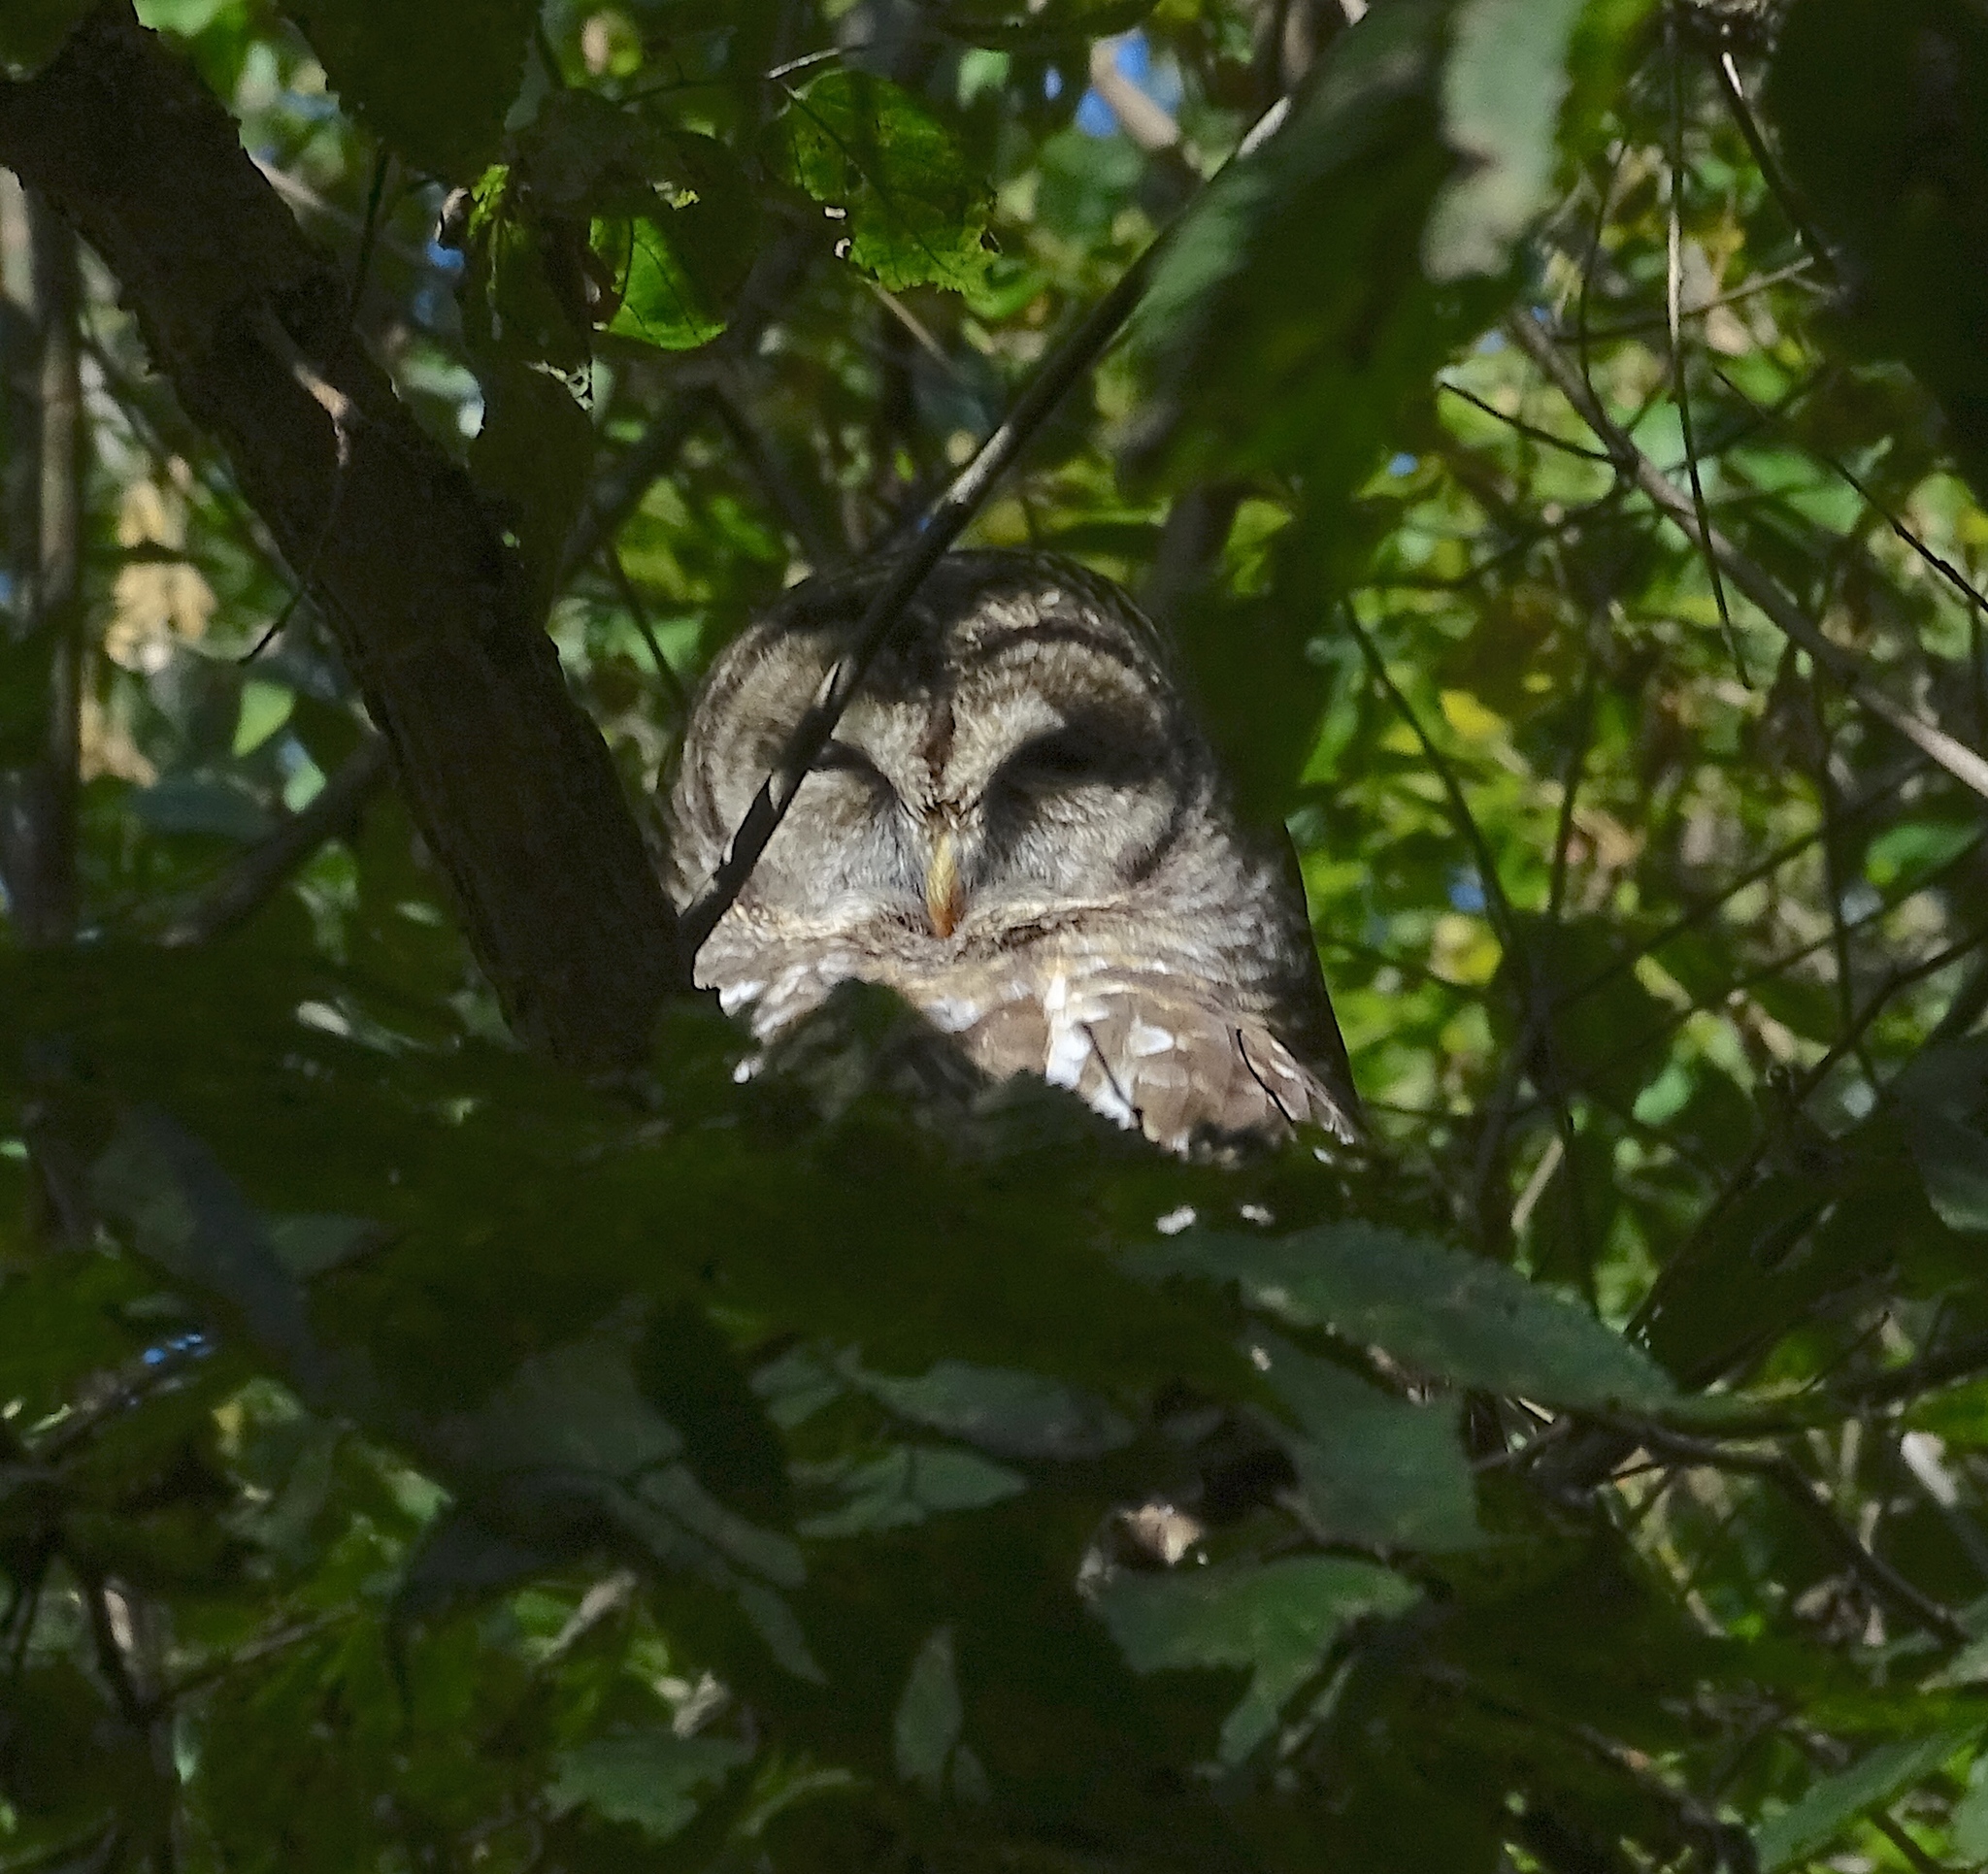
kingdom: Animalia
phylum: Chordata
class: Aves
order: Strigiformes
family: Strigidae
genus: Strix
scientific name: Strix varia
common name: Barred owl
